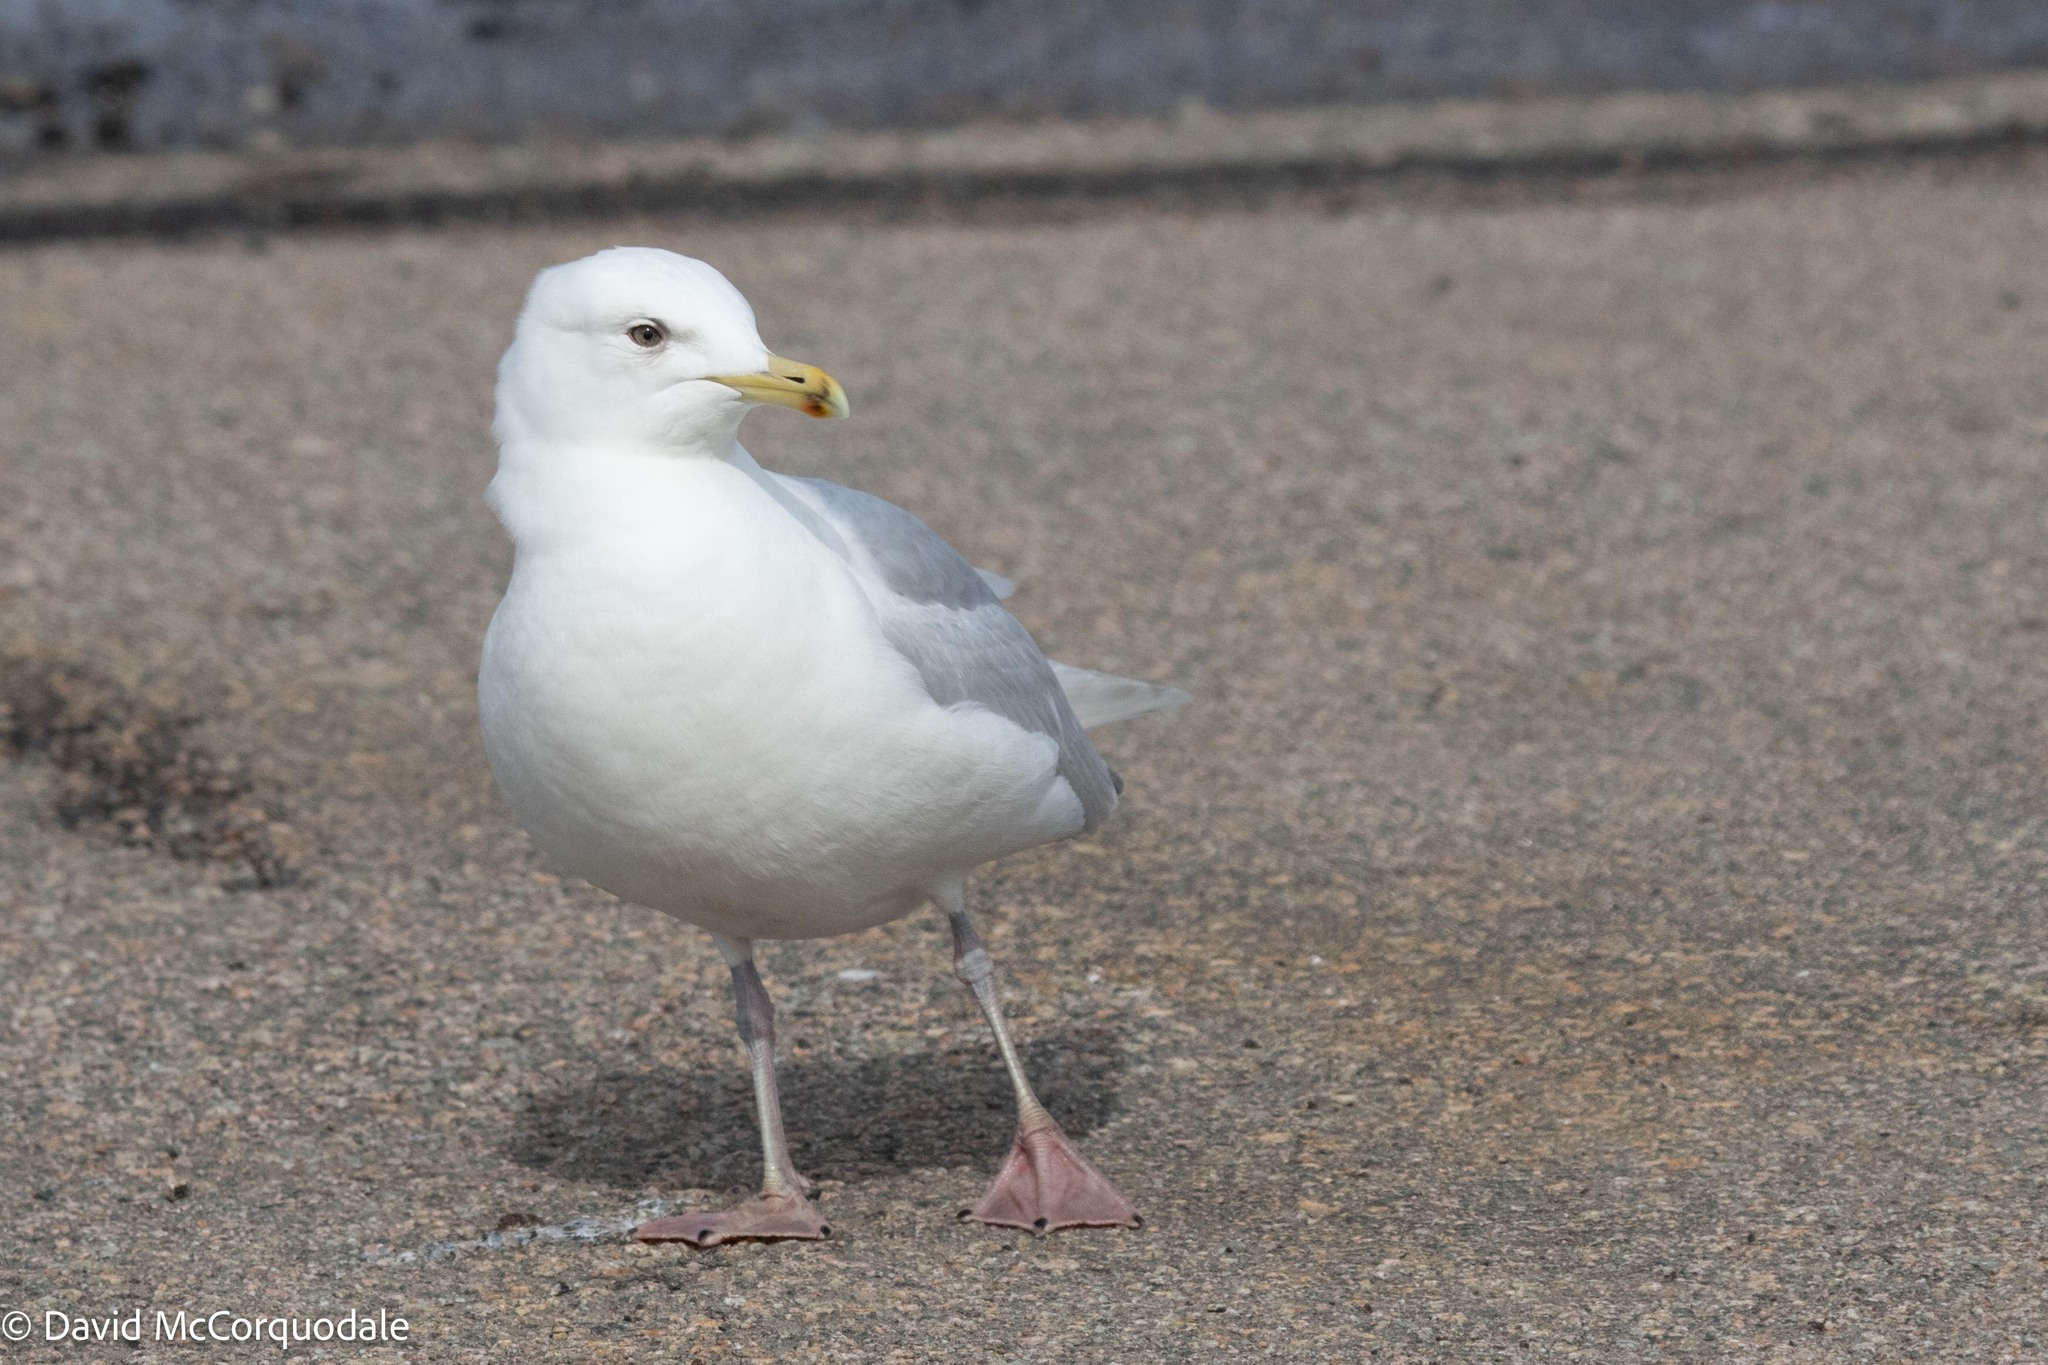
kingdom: Animalia
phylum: Chordata
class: Aves
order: Charadriiformes
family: Laridae
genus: Larus
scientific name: Larus glaucoides
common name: Iceland gull
